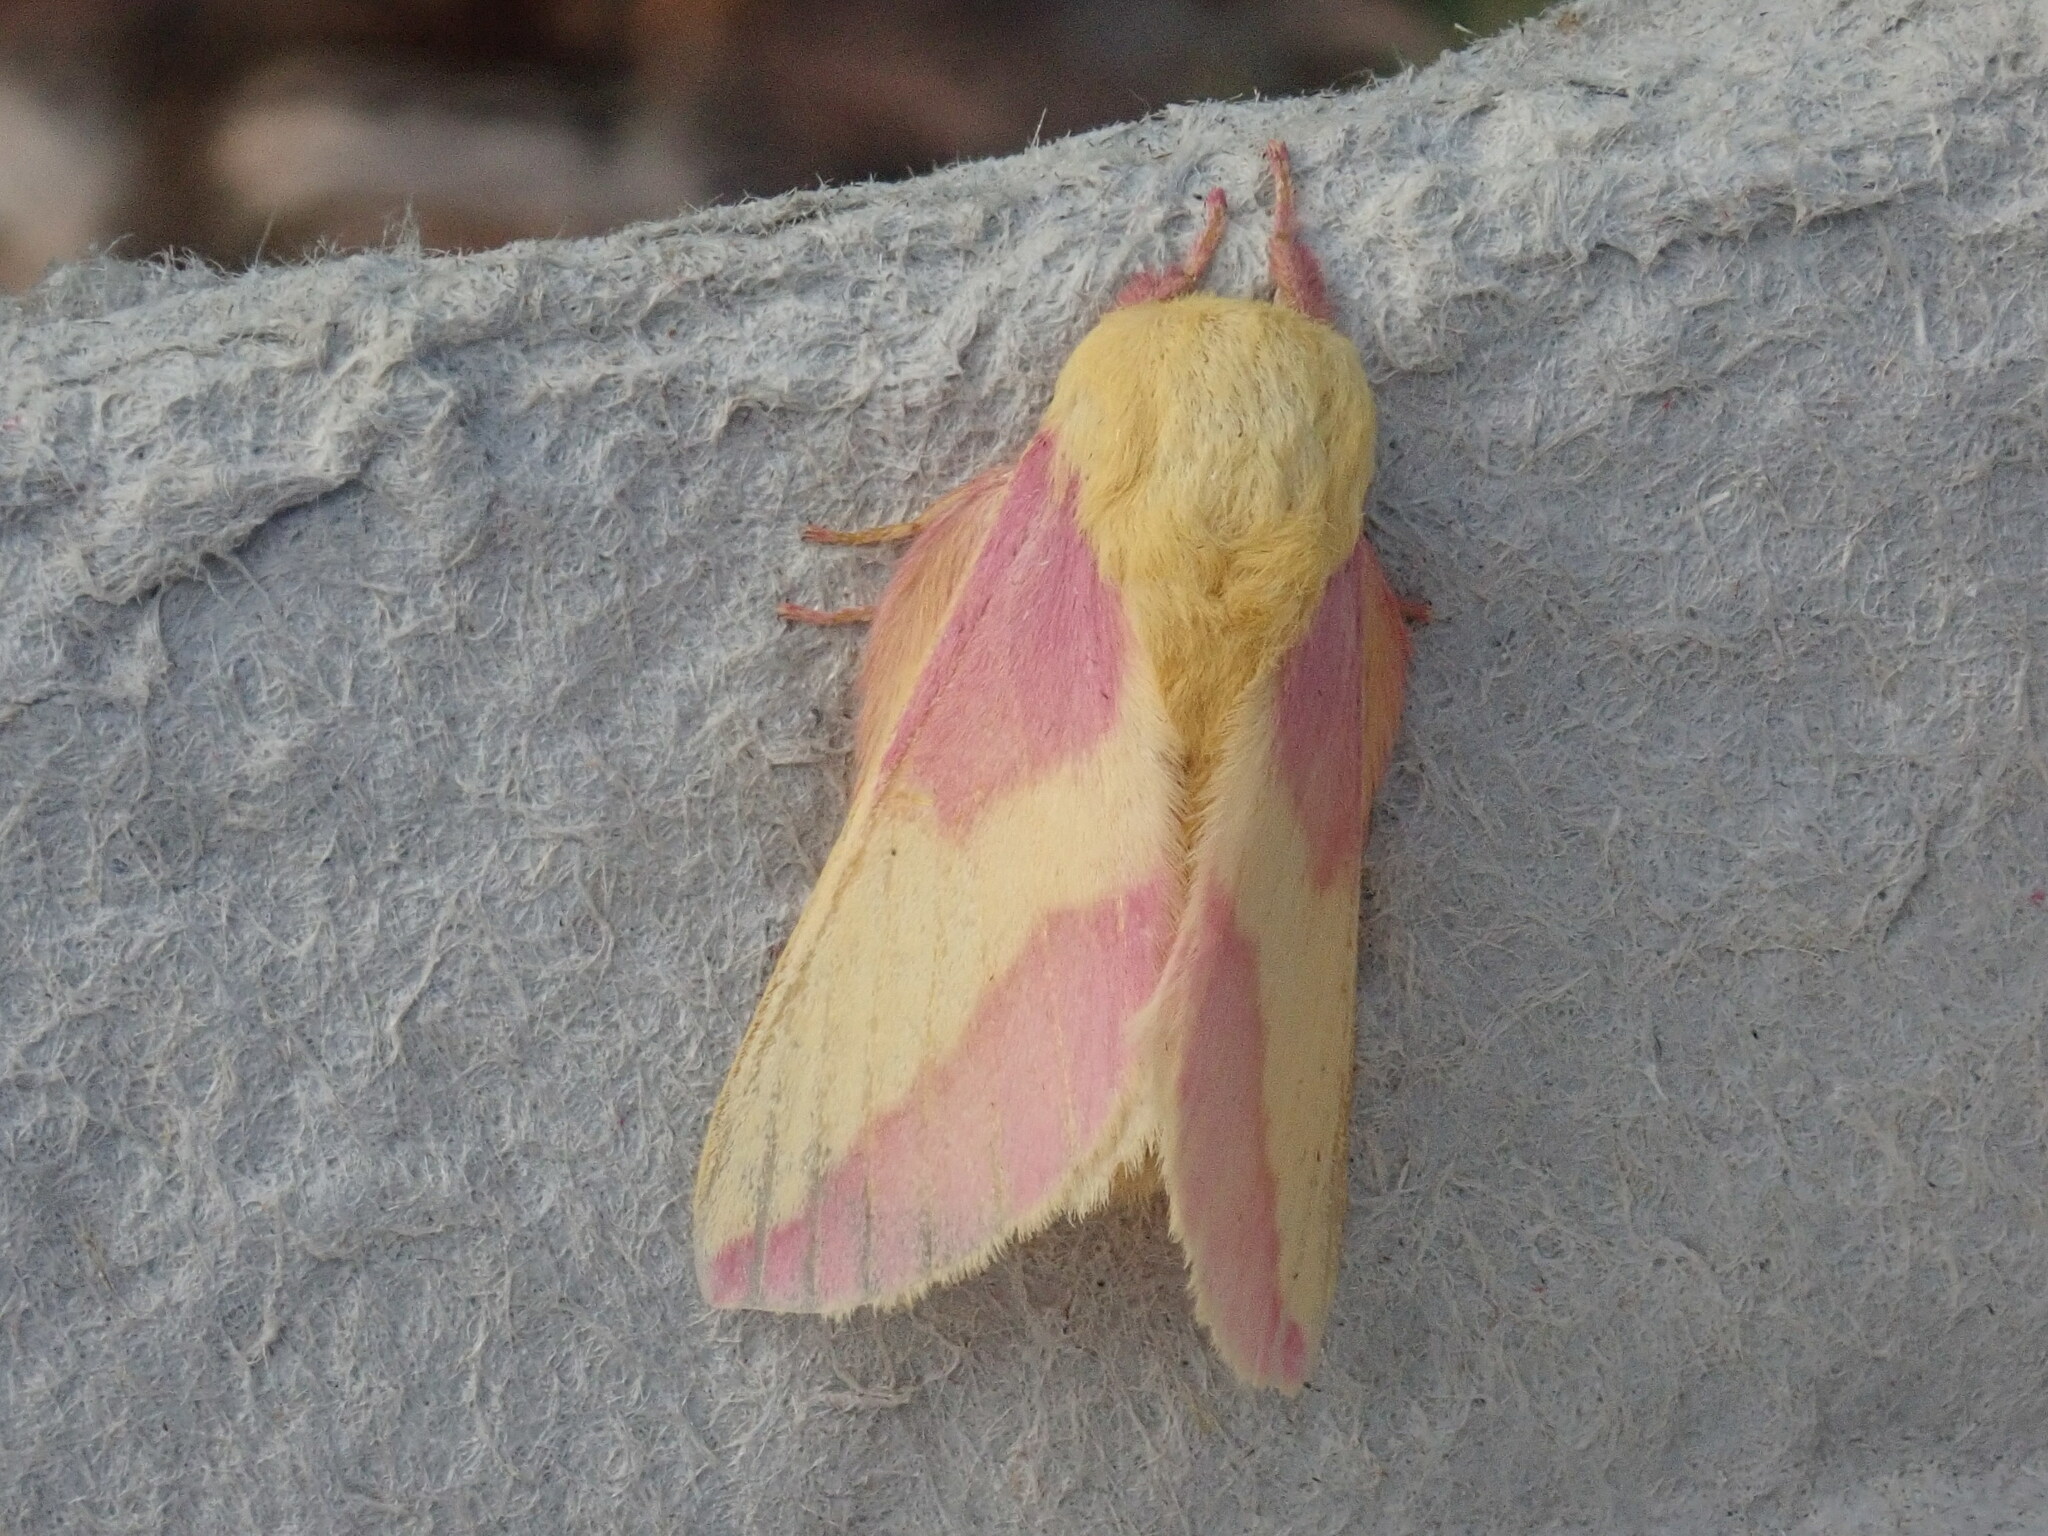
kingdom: Animalia
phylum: Arthropoda
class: Insecta
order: Lepidoptera
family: Saturniidae
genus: Dryocampa
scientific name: Dryocampa rubicunda
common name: Rosy maple moth
